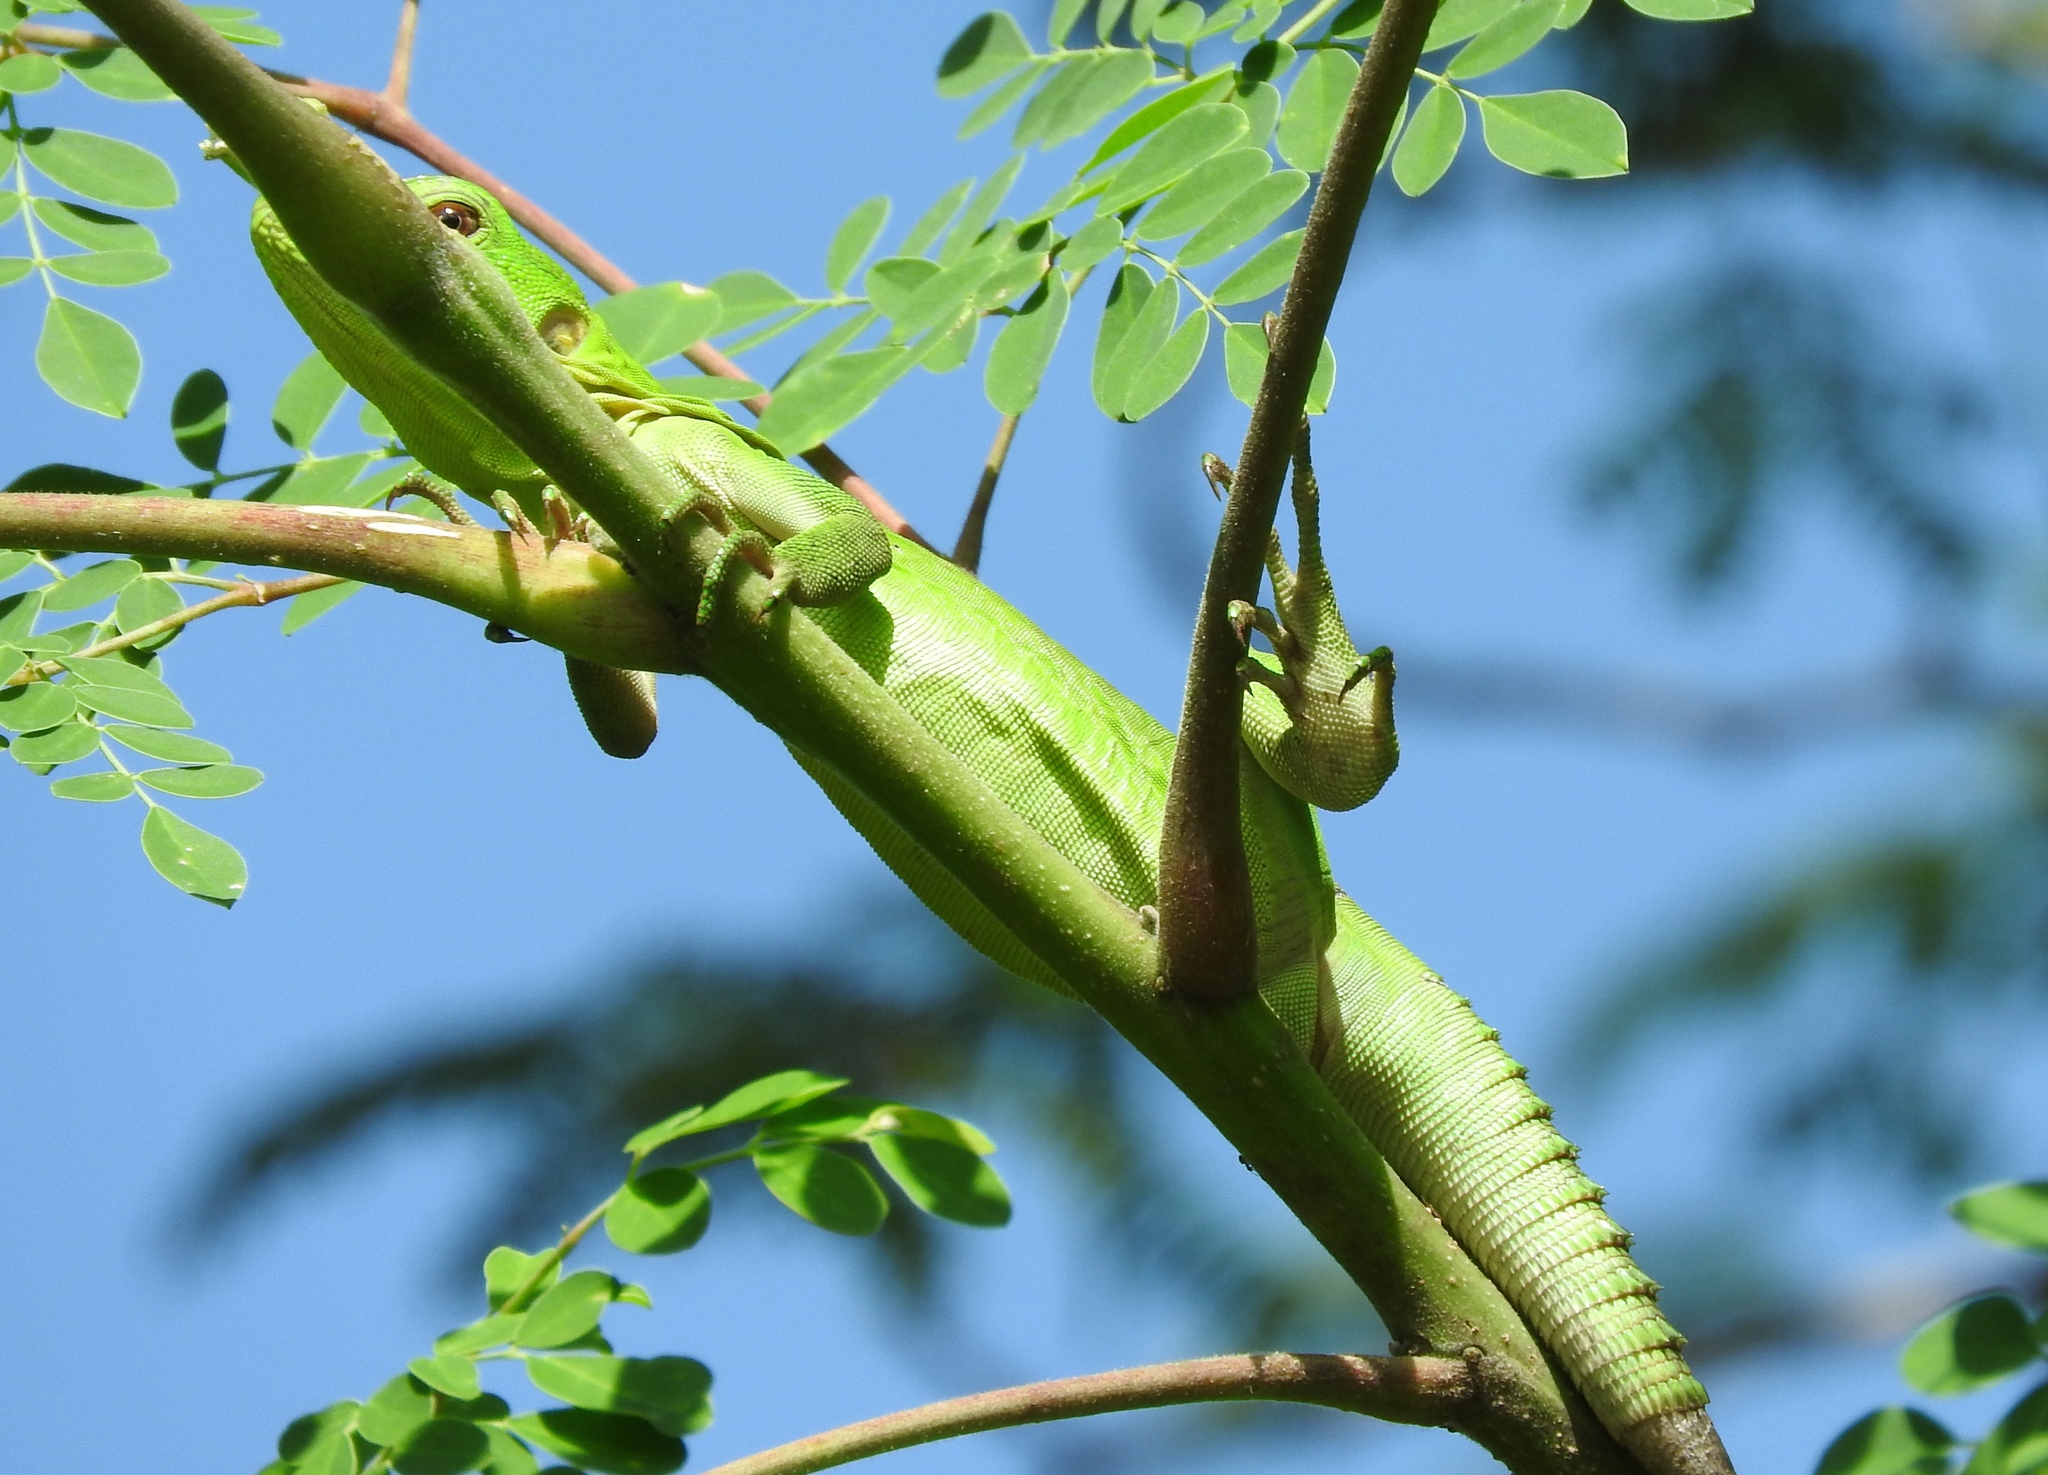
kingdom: Animalia
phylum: Chordata
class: Squamata
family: Iguanidae
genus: Ctenosaura
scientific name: Ctenosaura pectinata
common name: Guerreran spiny-tailed iguana
